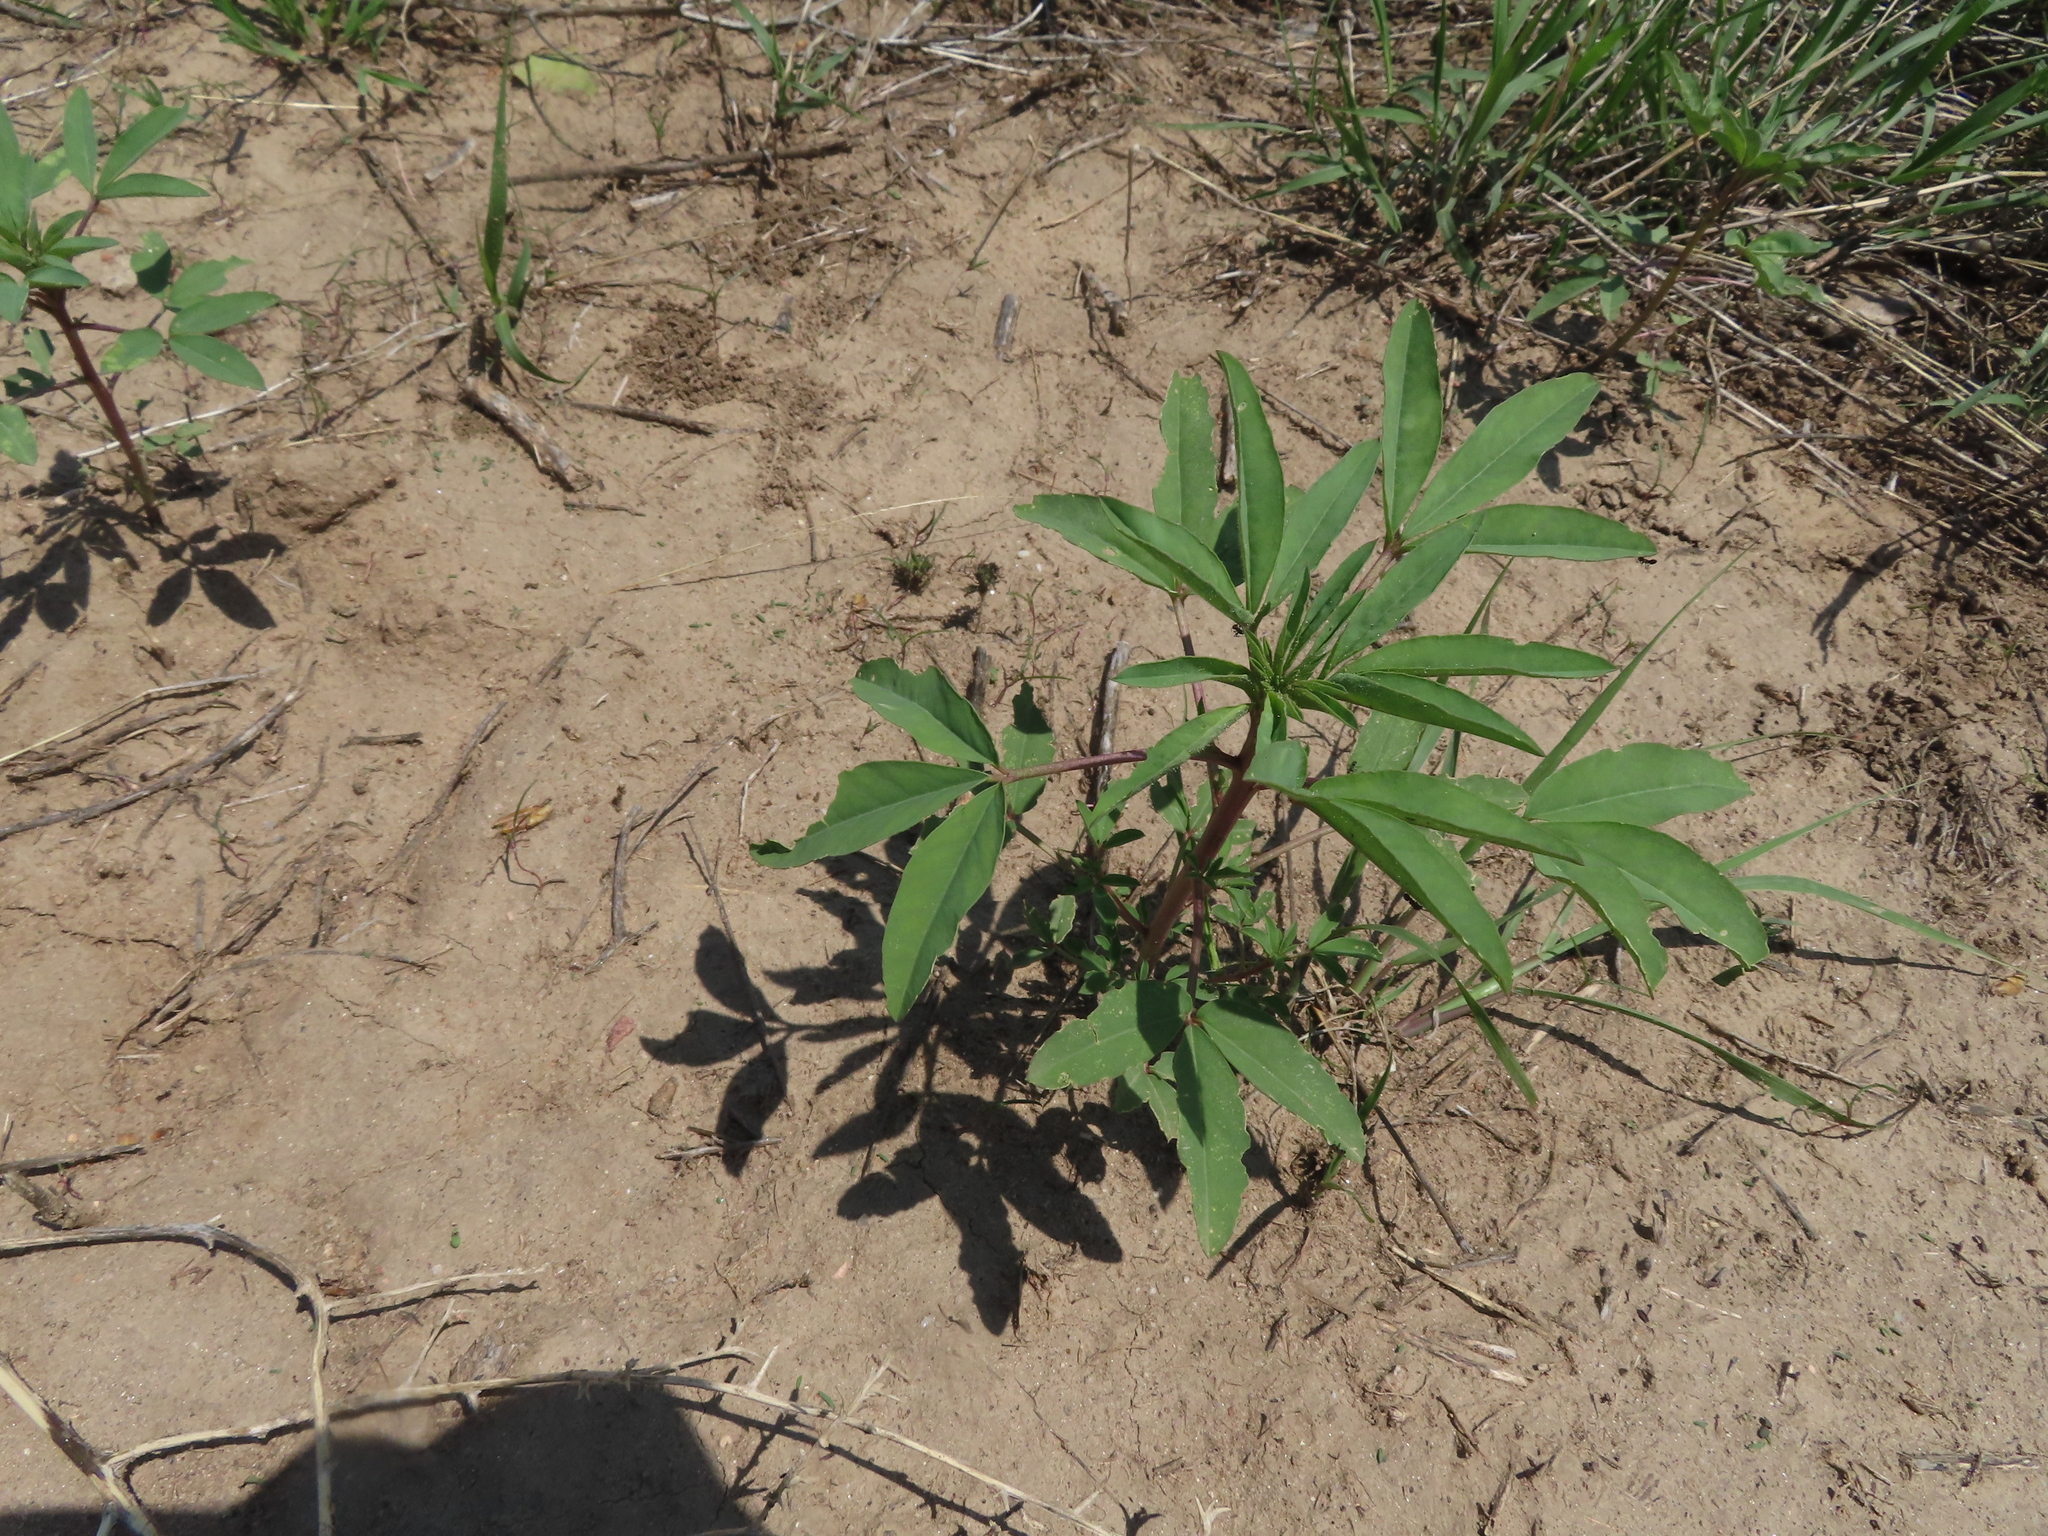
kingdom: Plantae
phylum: Tracheophyta
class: Magnoliopsida
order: Brassicales
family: Cleomaceae
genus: Cleomella
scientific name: Cleomella serrulata
